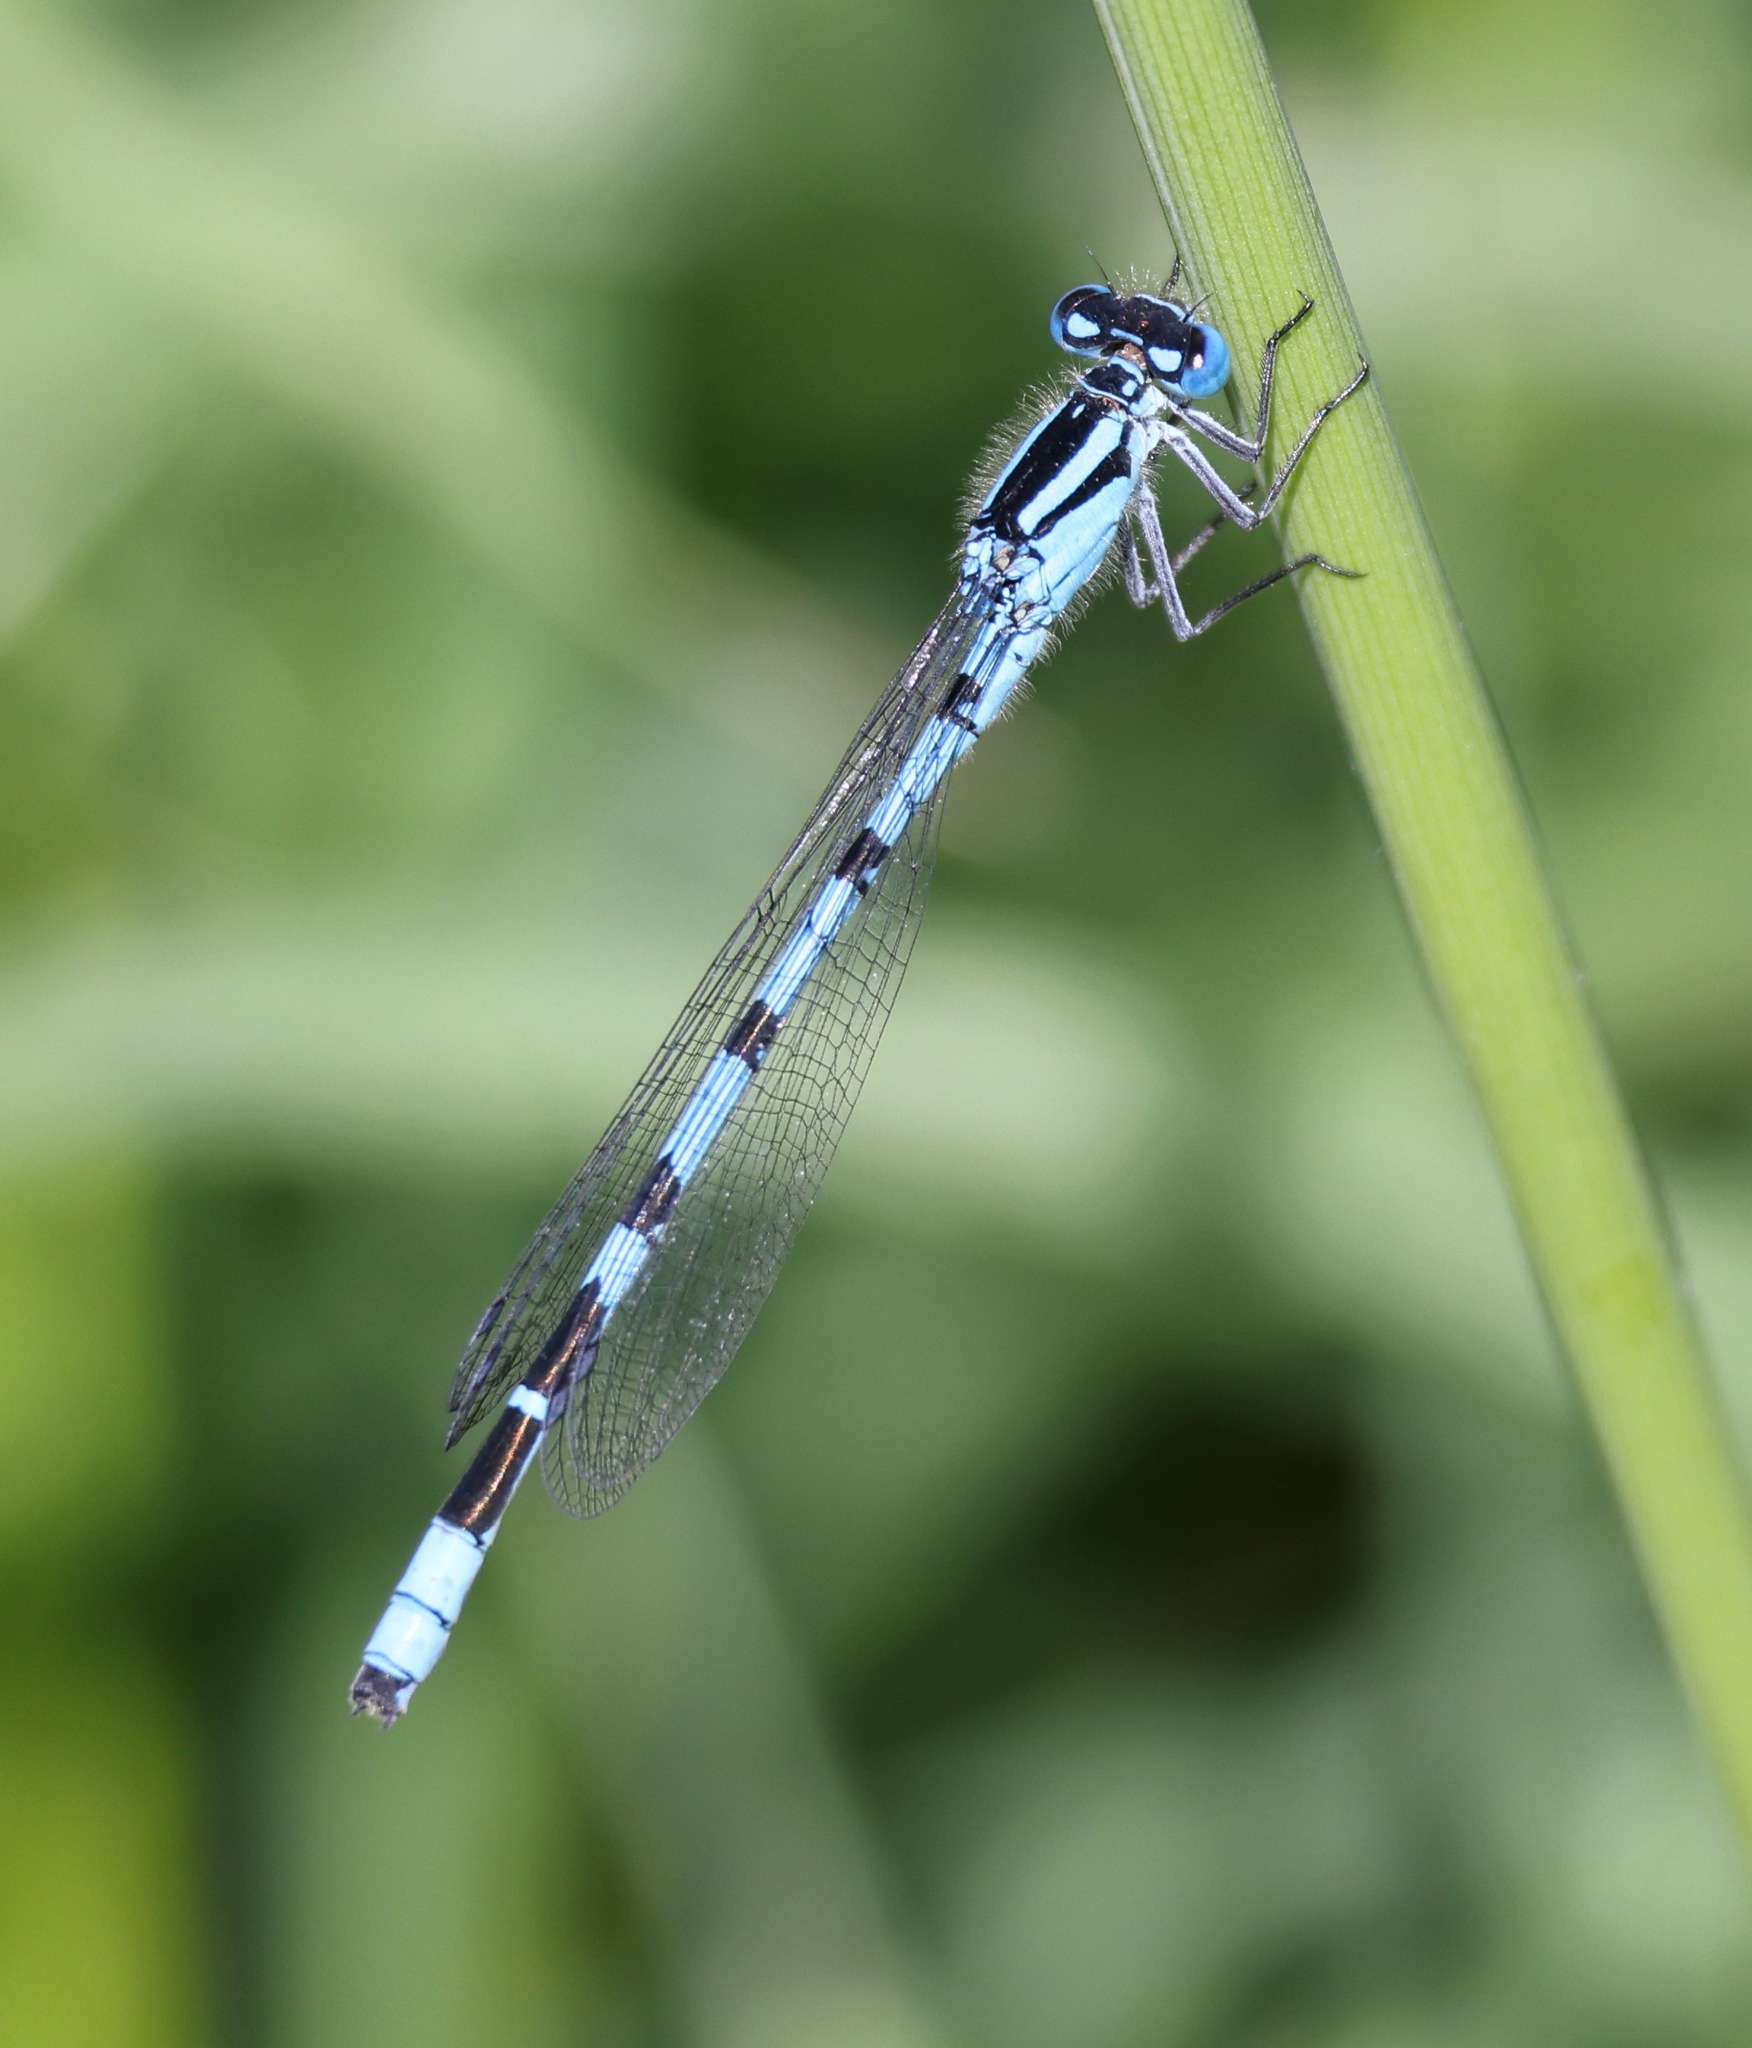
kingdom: Animalia
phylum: Arthropoda
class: Insecta
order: Odonata
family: Coenagrionidae
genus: Enallagma
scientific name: Enallagma cyathigerum
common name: Common blue damselfly
